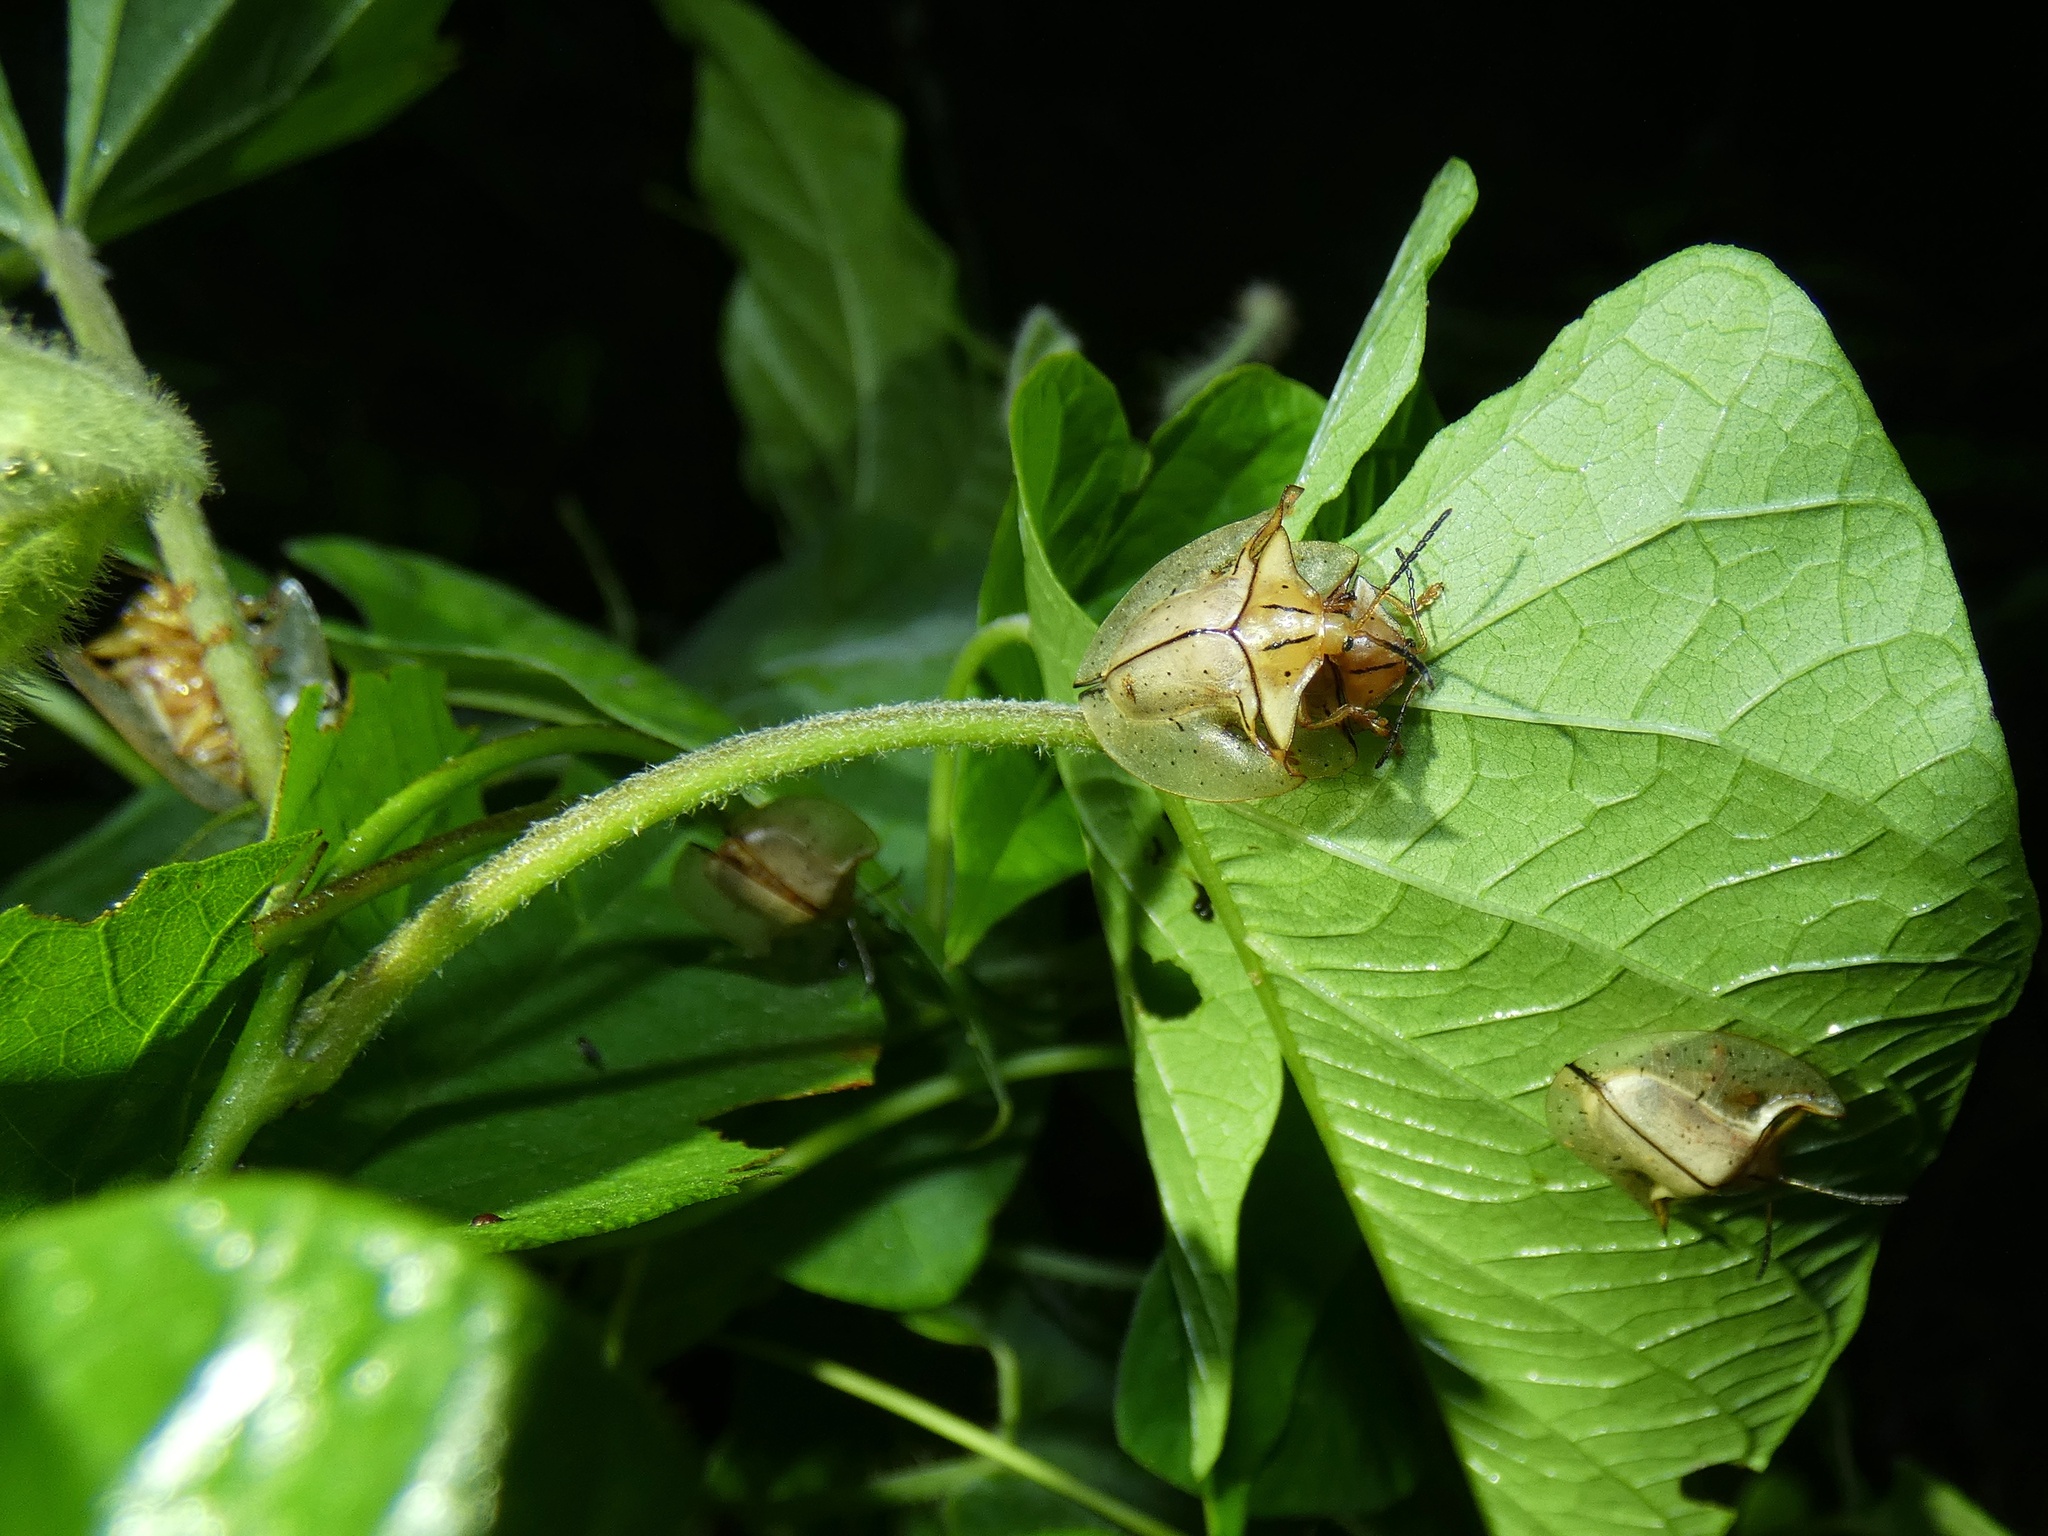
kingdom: Animalia
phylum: Arthropoda
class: Insecta
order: Coleoptera
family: Chrysomelidae
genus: Acromis
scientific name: Acromis sparsa
